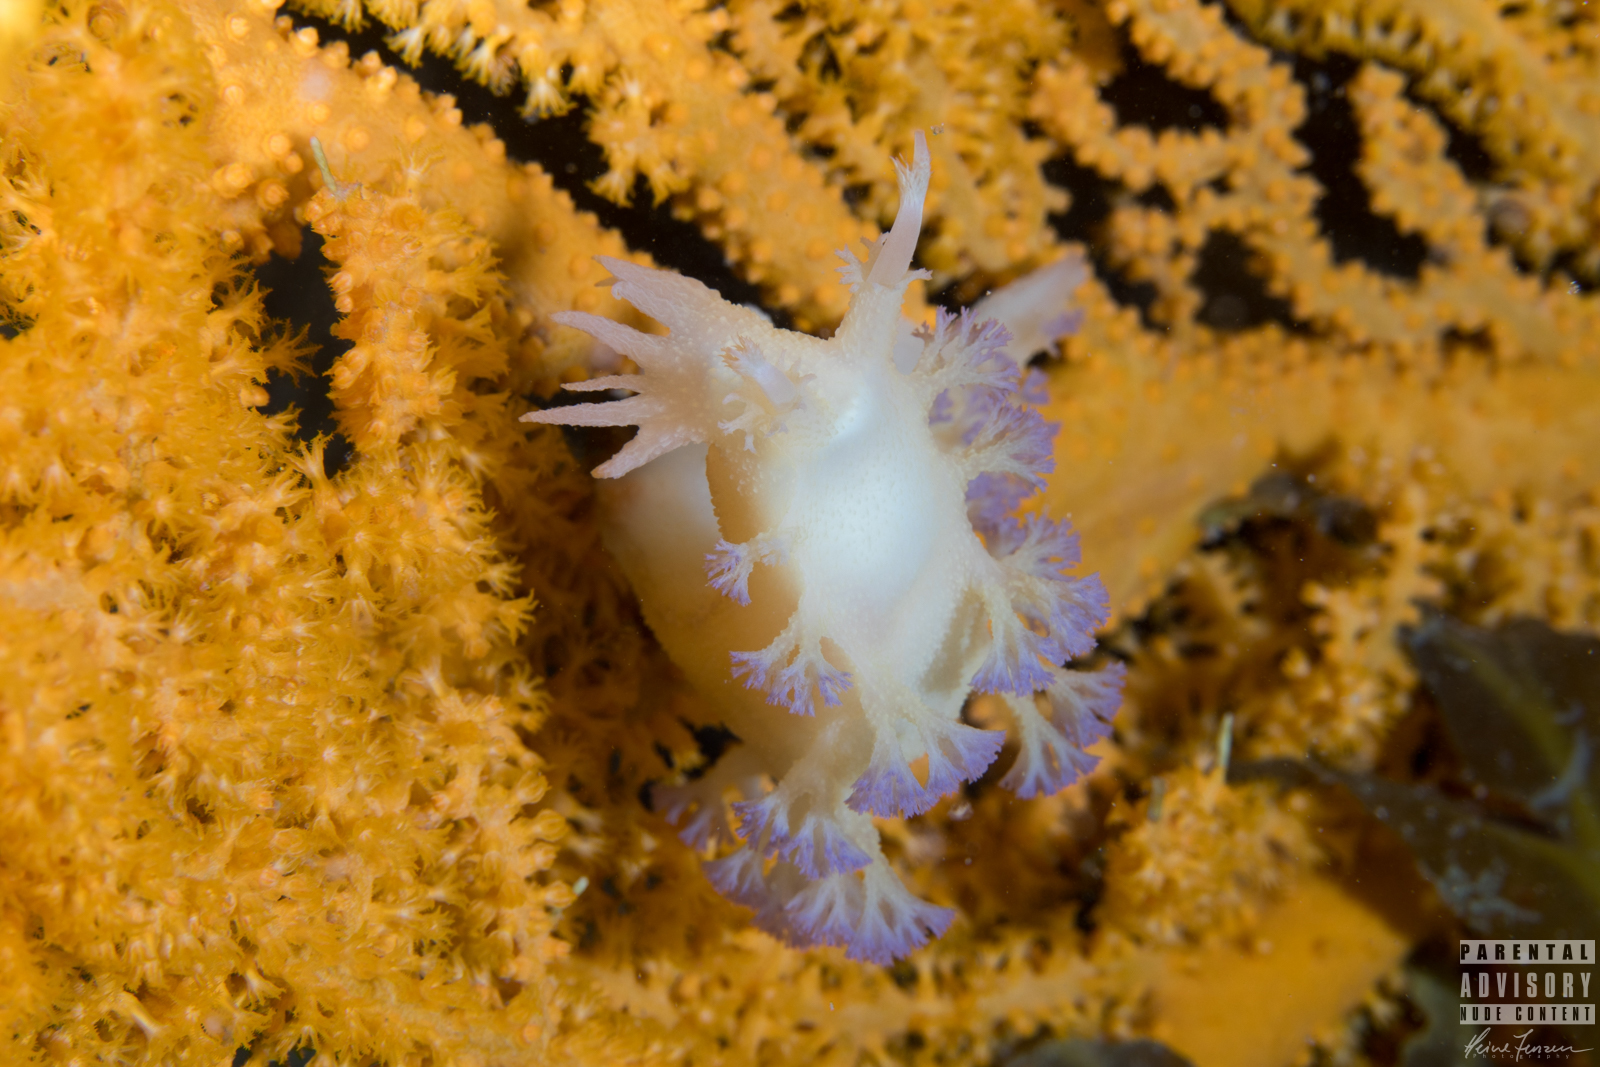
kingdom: Animalia
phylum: Mollusca
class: Gastropoda
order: Nudibranchia
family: Tritoniidae
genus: Tritonia
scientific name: Tritonia griegi
